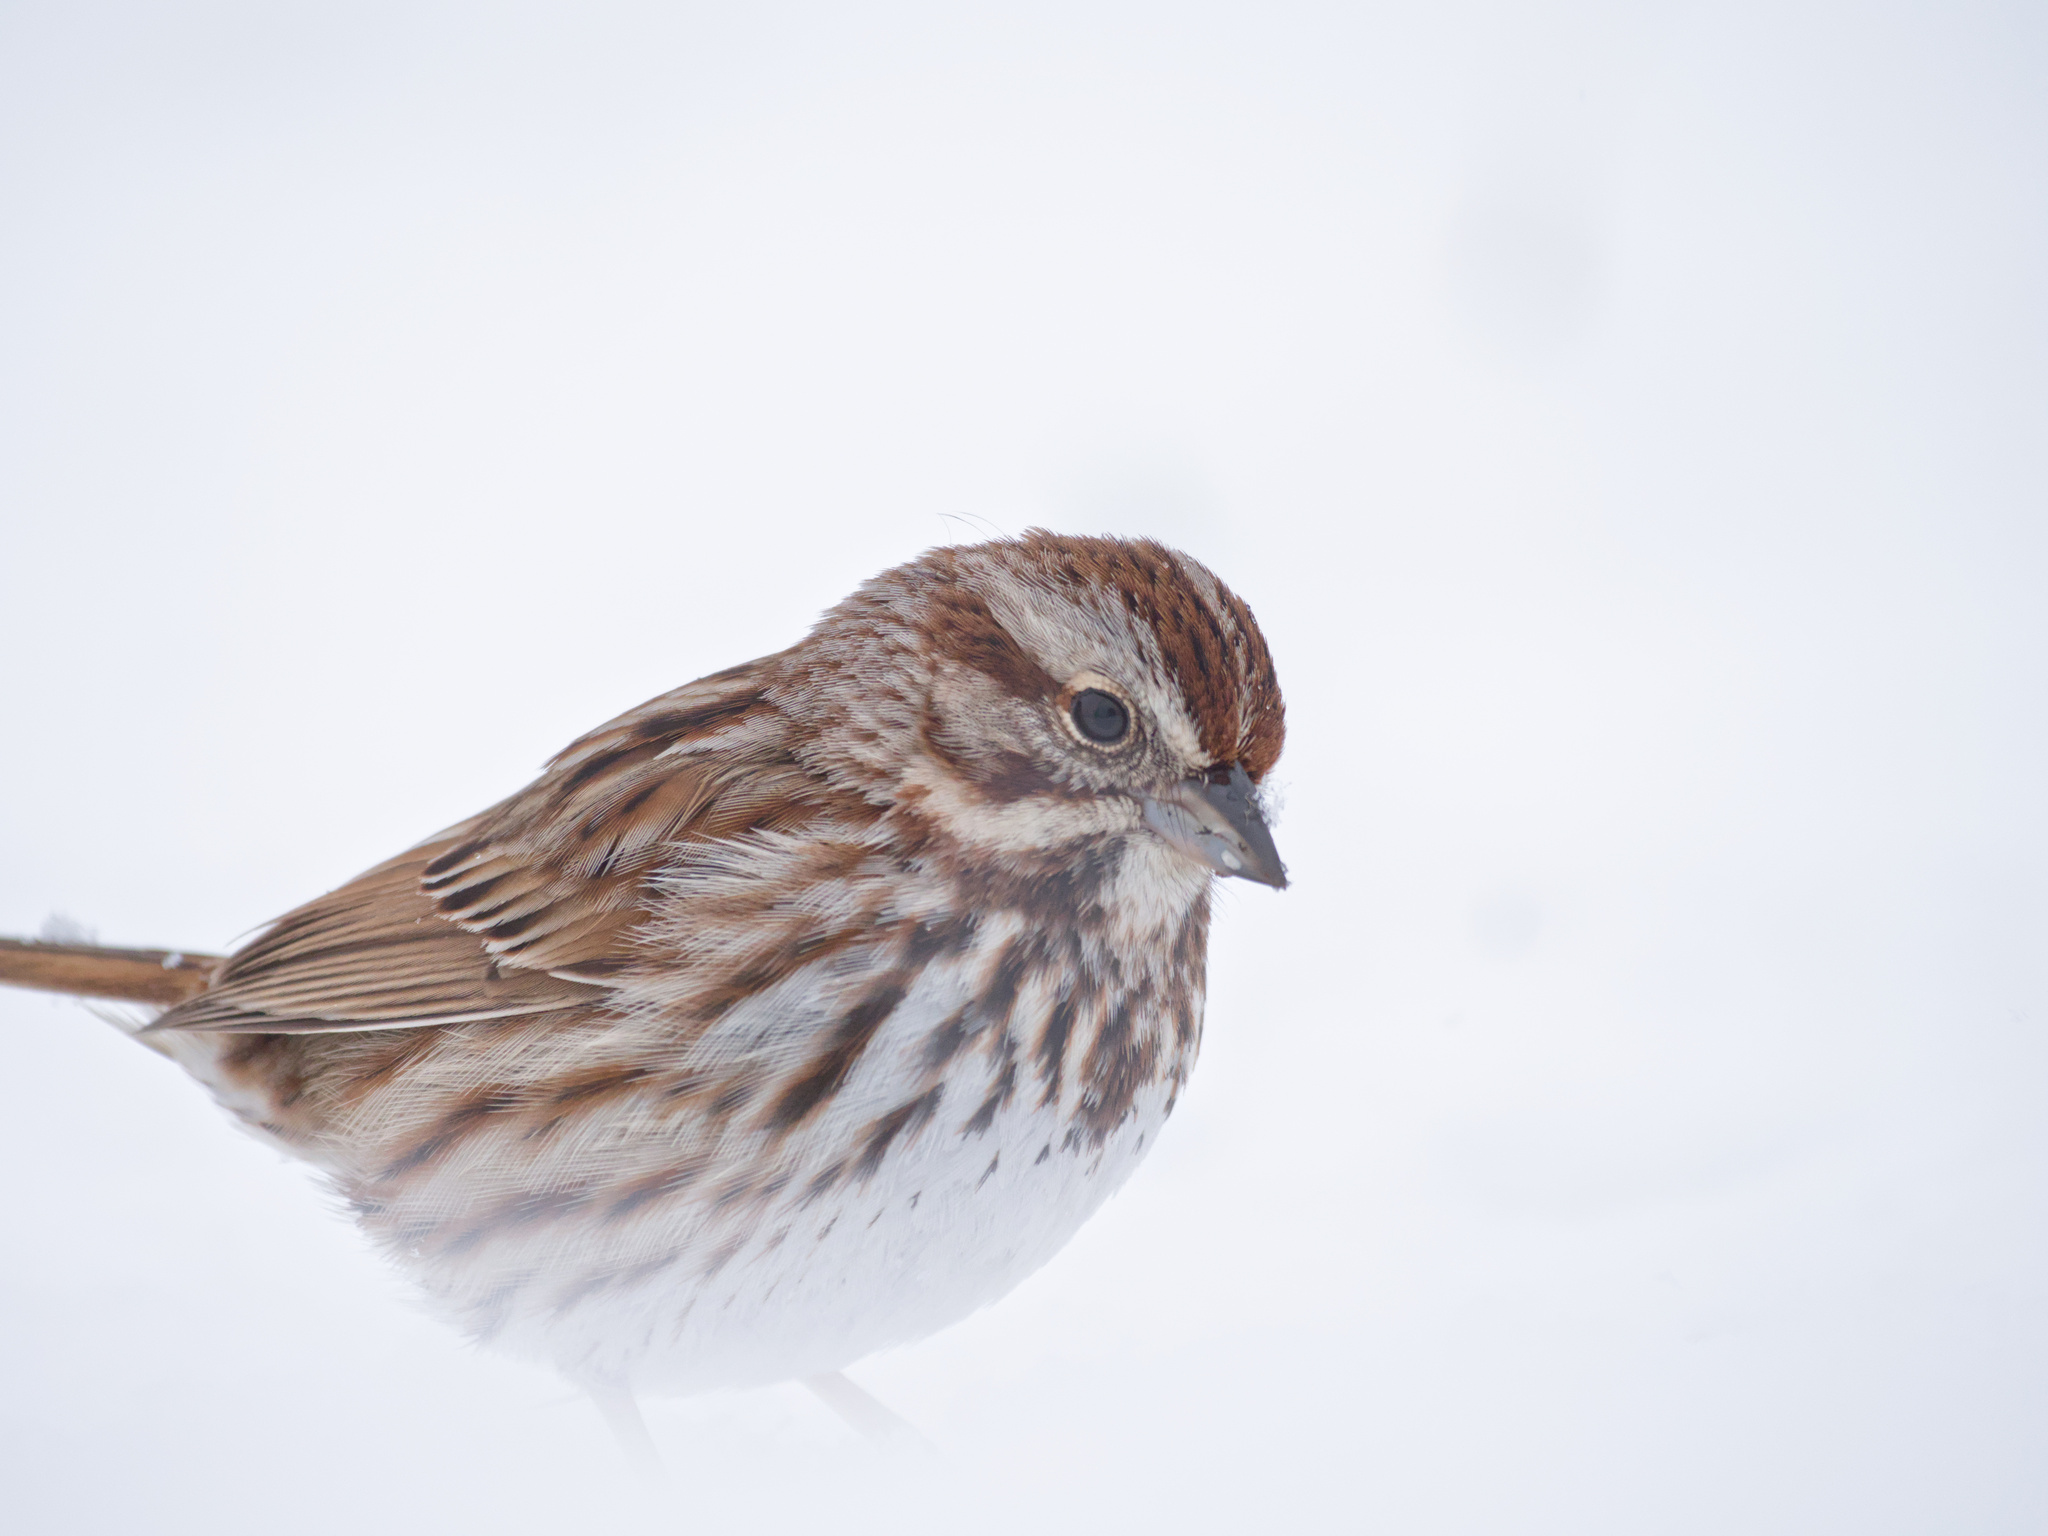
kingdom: Animalia
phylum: Chordata
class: Aves
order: Passeriformes
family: Passerellidae
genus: Melospiza
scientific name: Melospiza melodia
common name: Song sparrow
